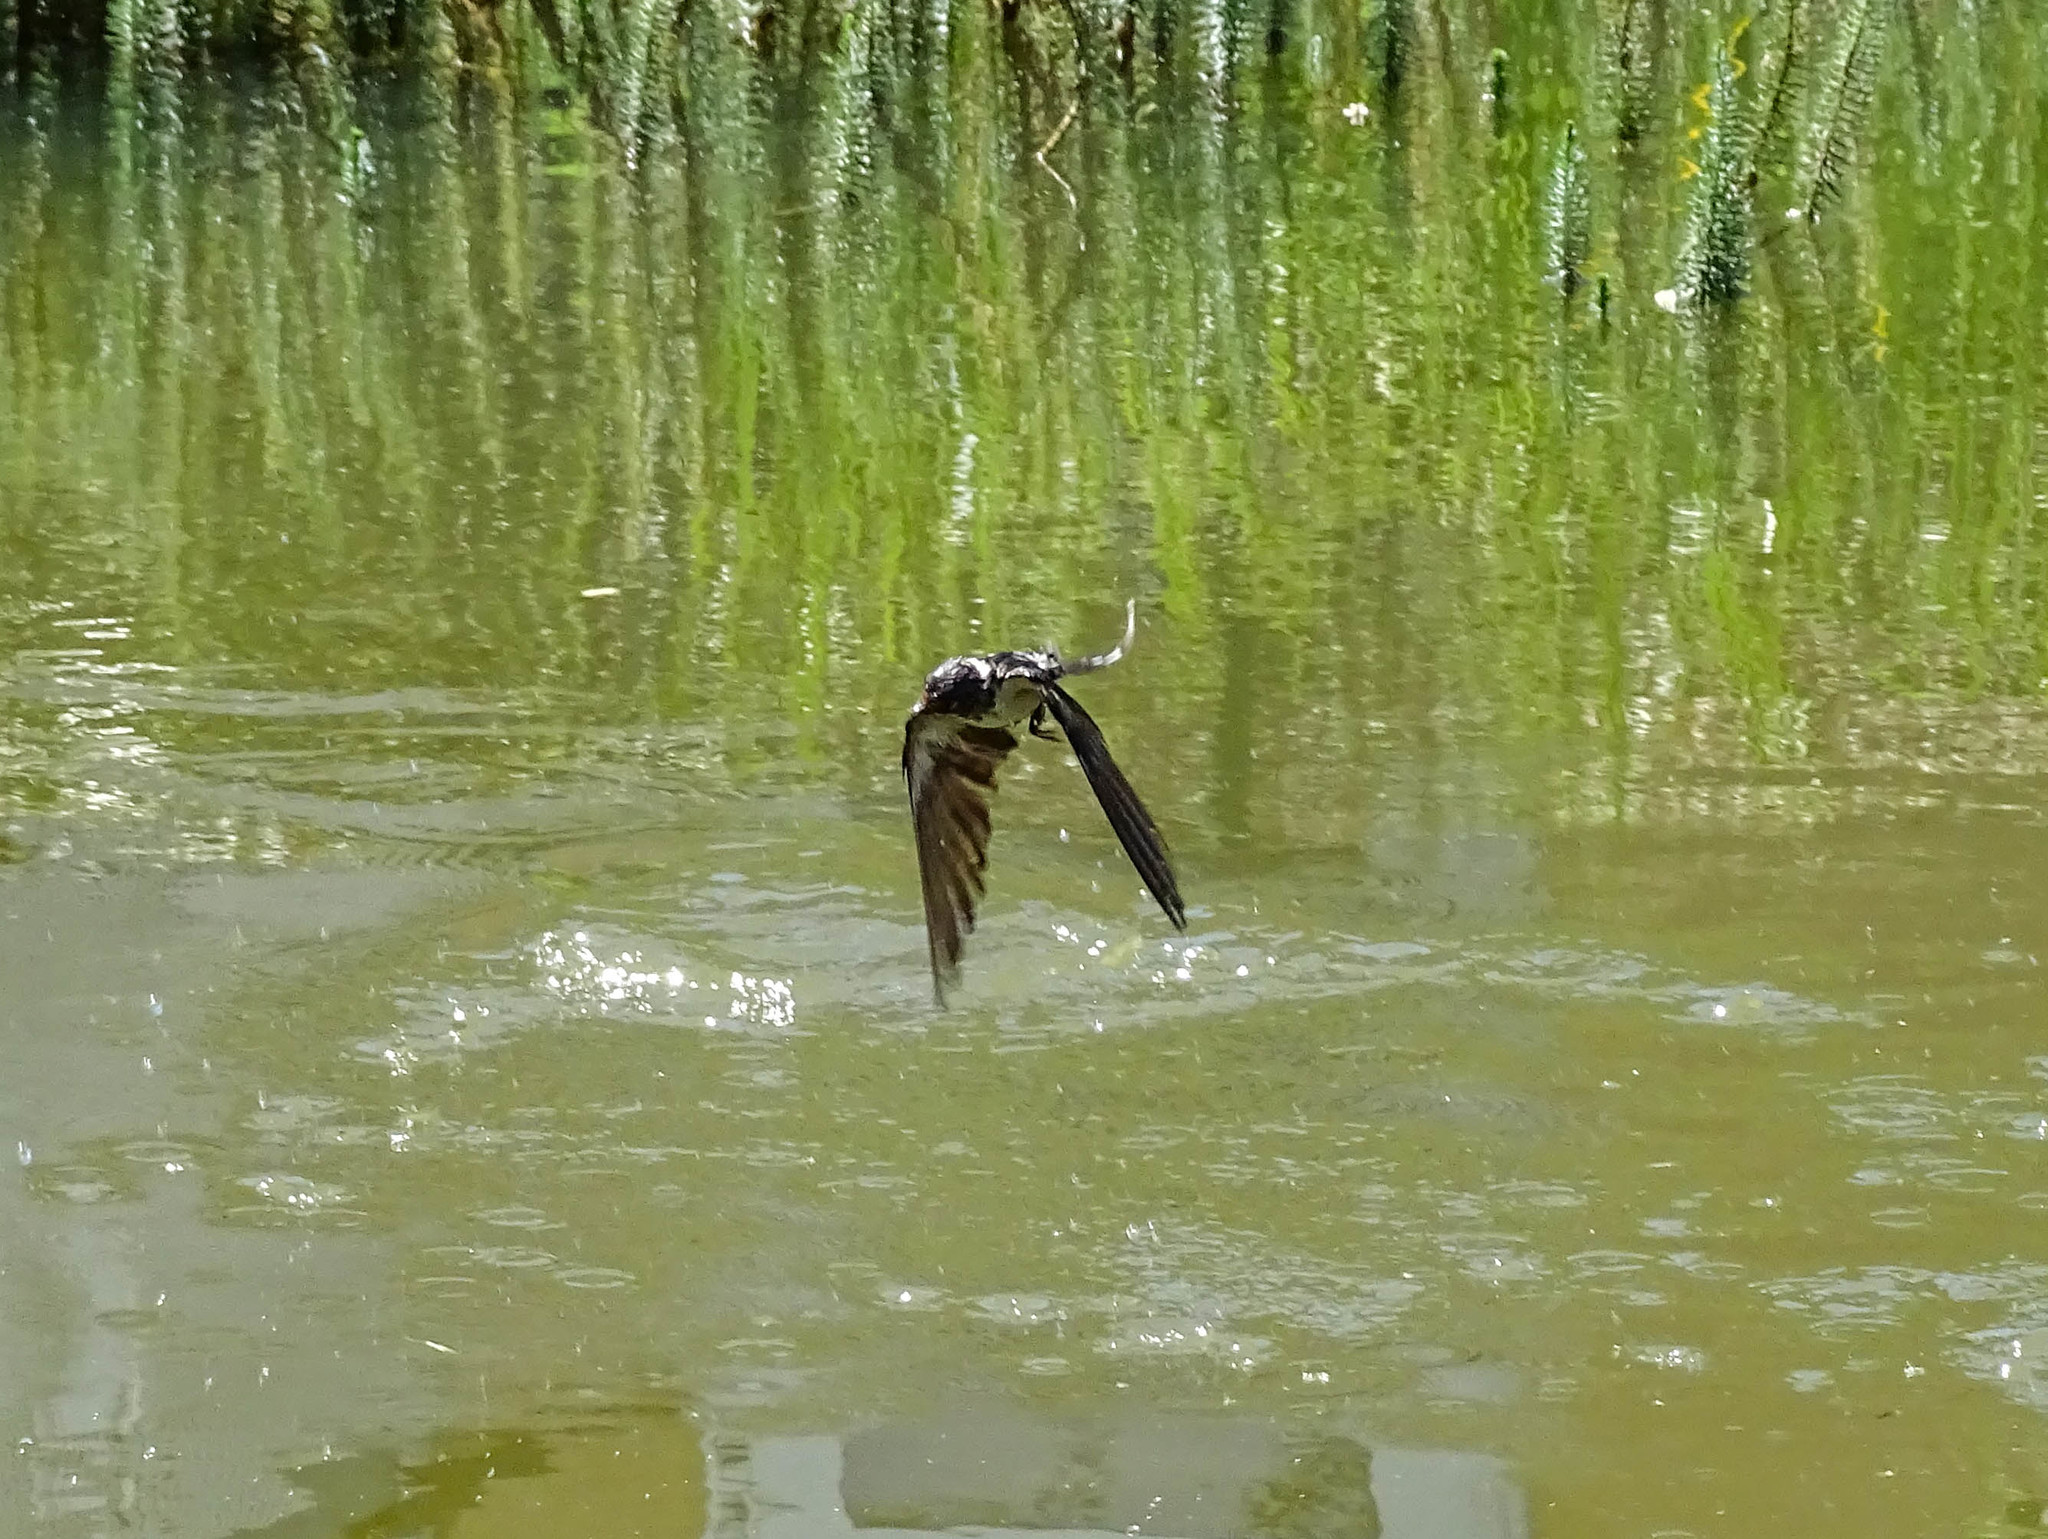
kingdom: Animalia
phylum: Chordata
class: Aves
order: Passeriformes
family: Hirundinidae
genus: Hirundo
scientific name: Hirundo rustica
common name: Barn swallow
